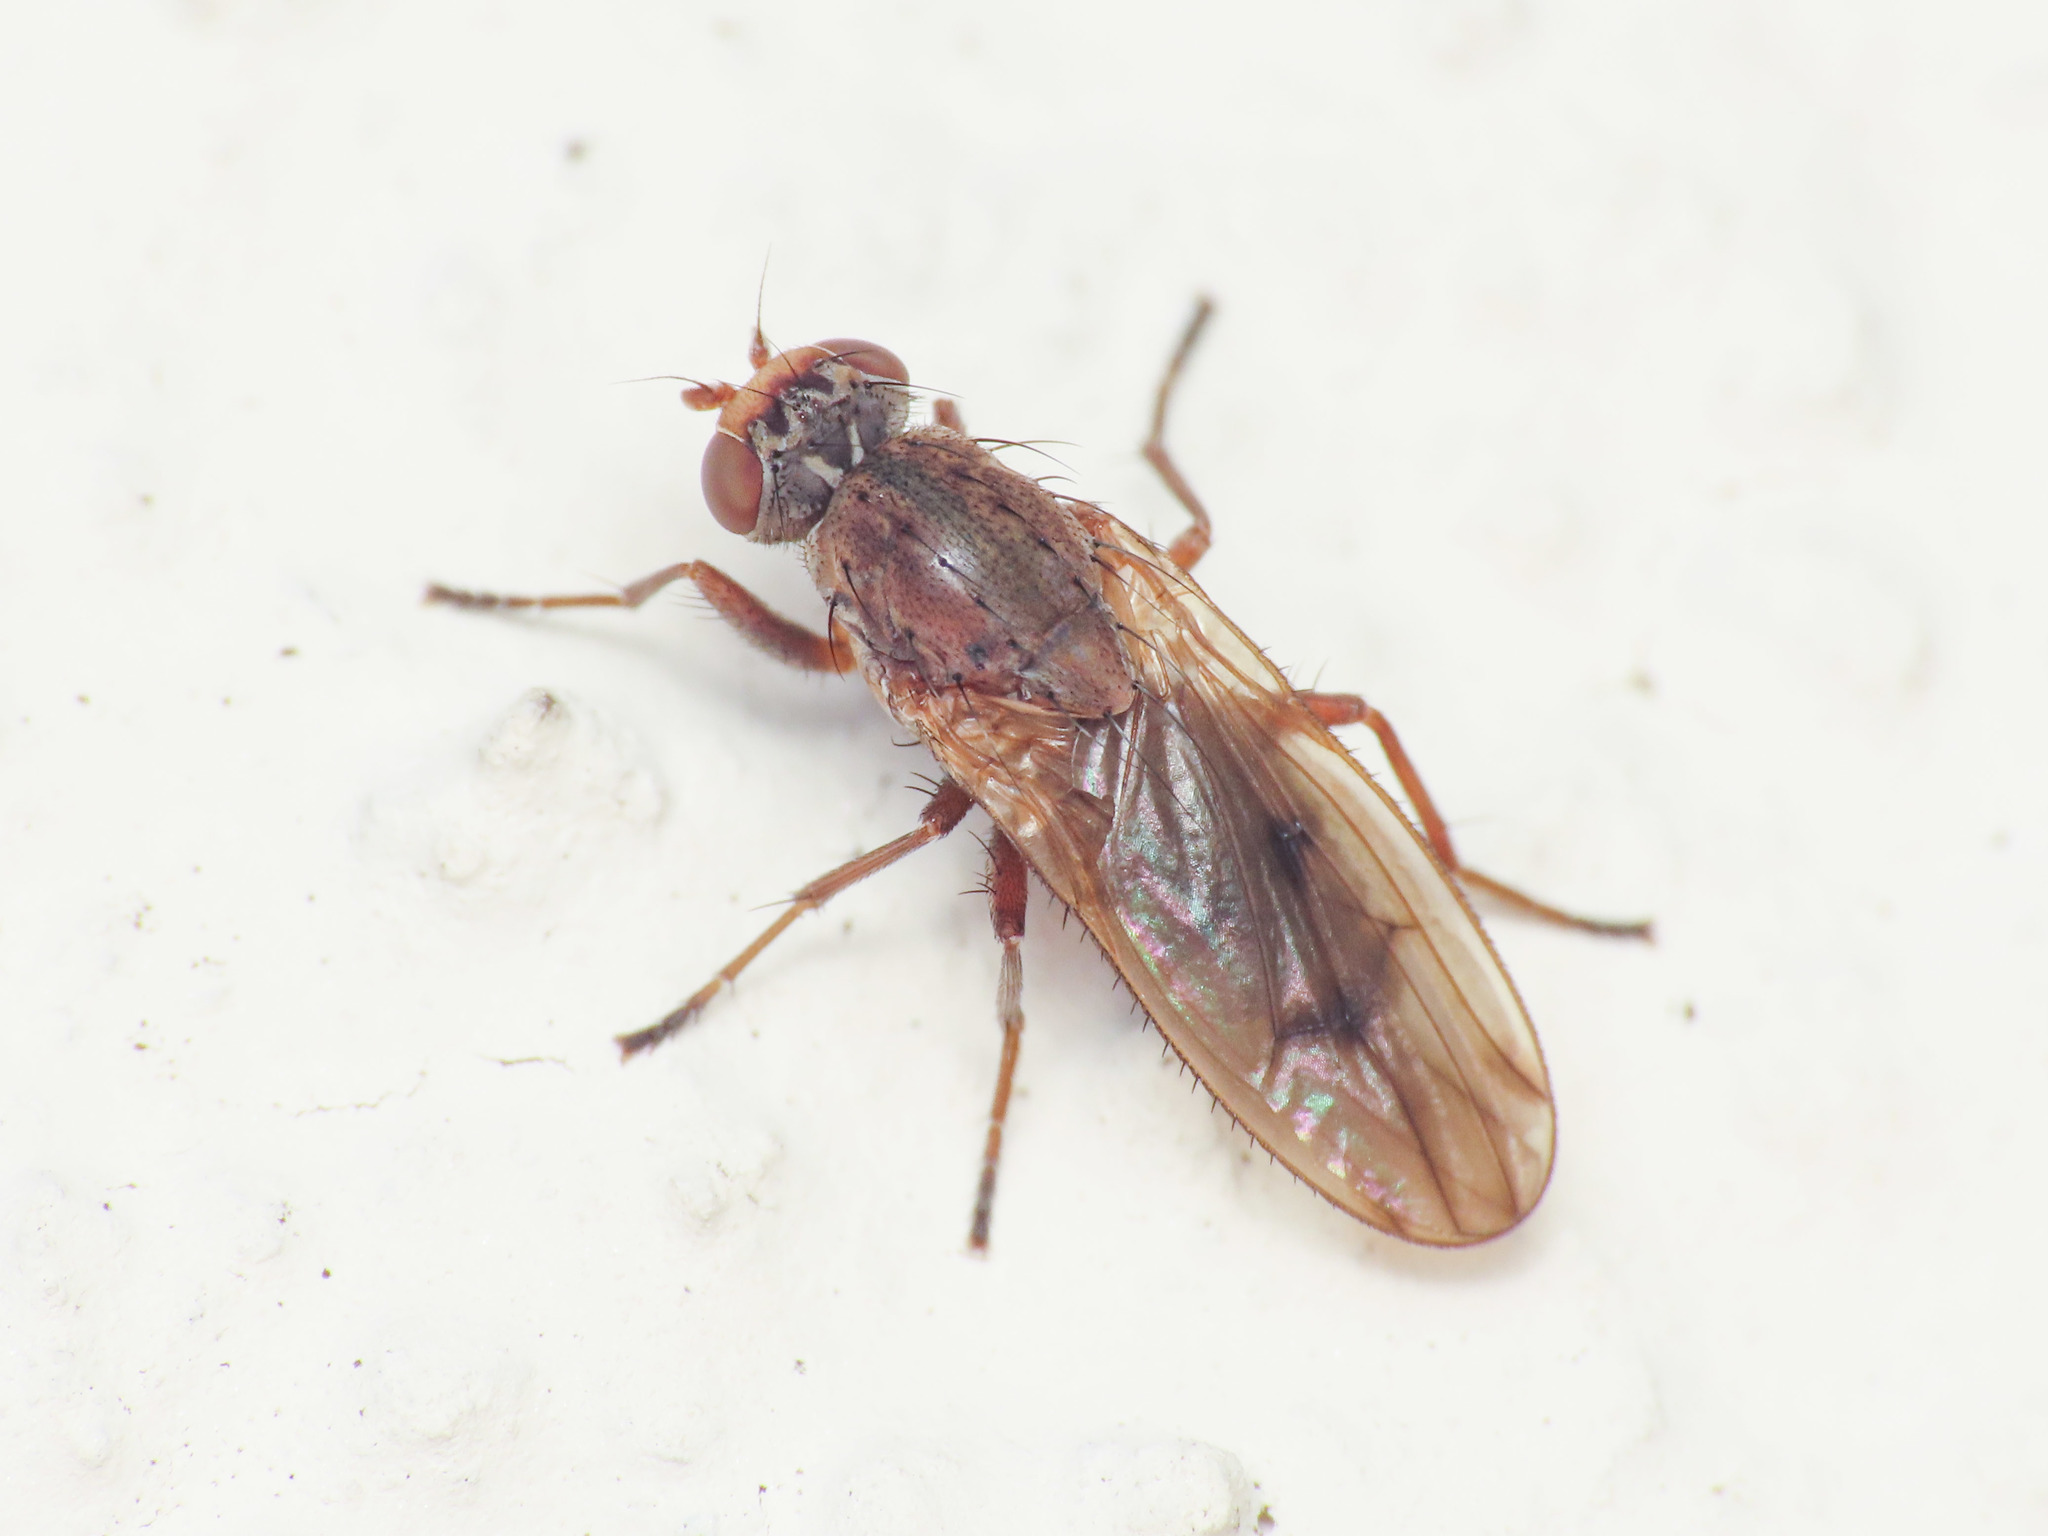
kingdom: Animalia
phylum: Arthropoda
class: Insecta
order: Diptera
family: Heleomyzidae
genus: Suillia
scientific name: Suillia humilis
